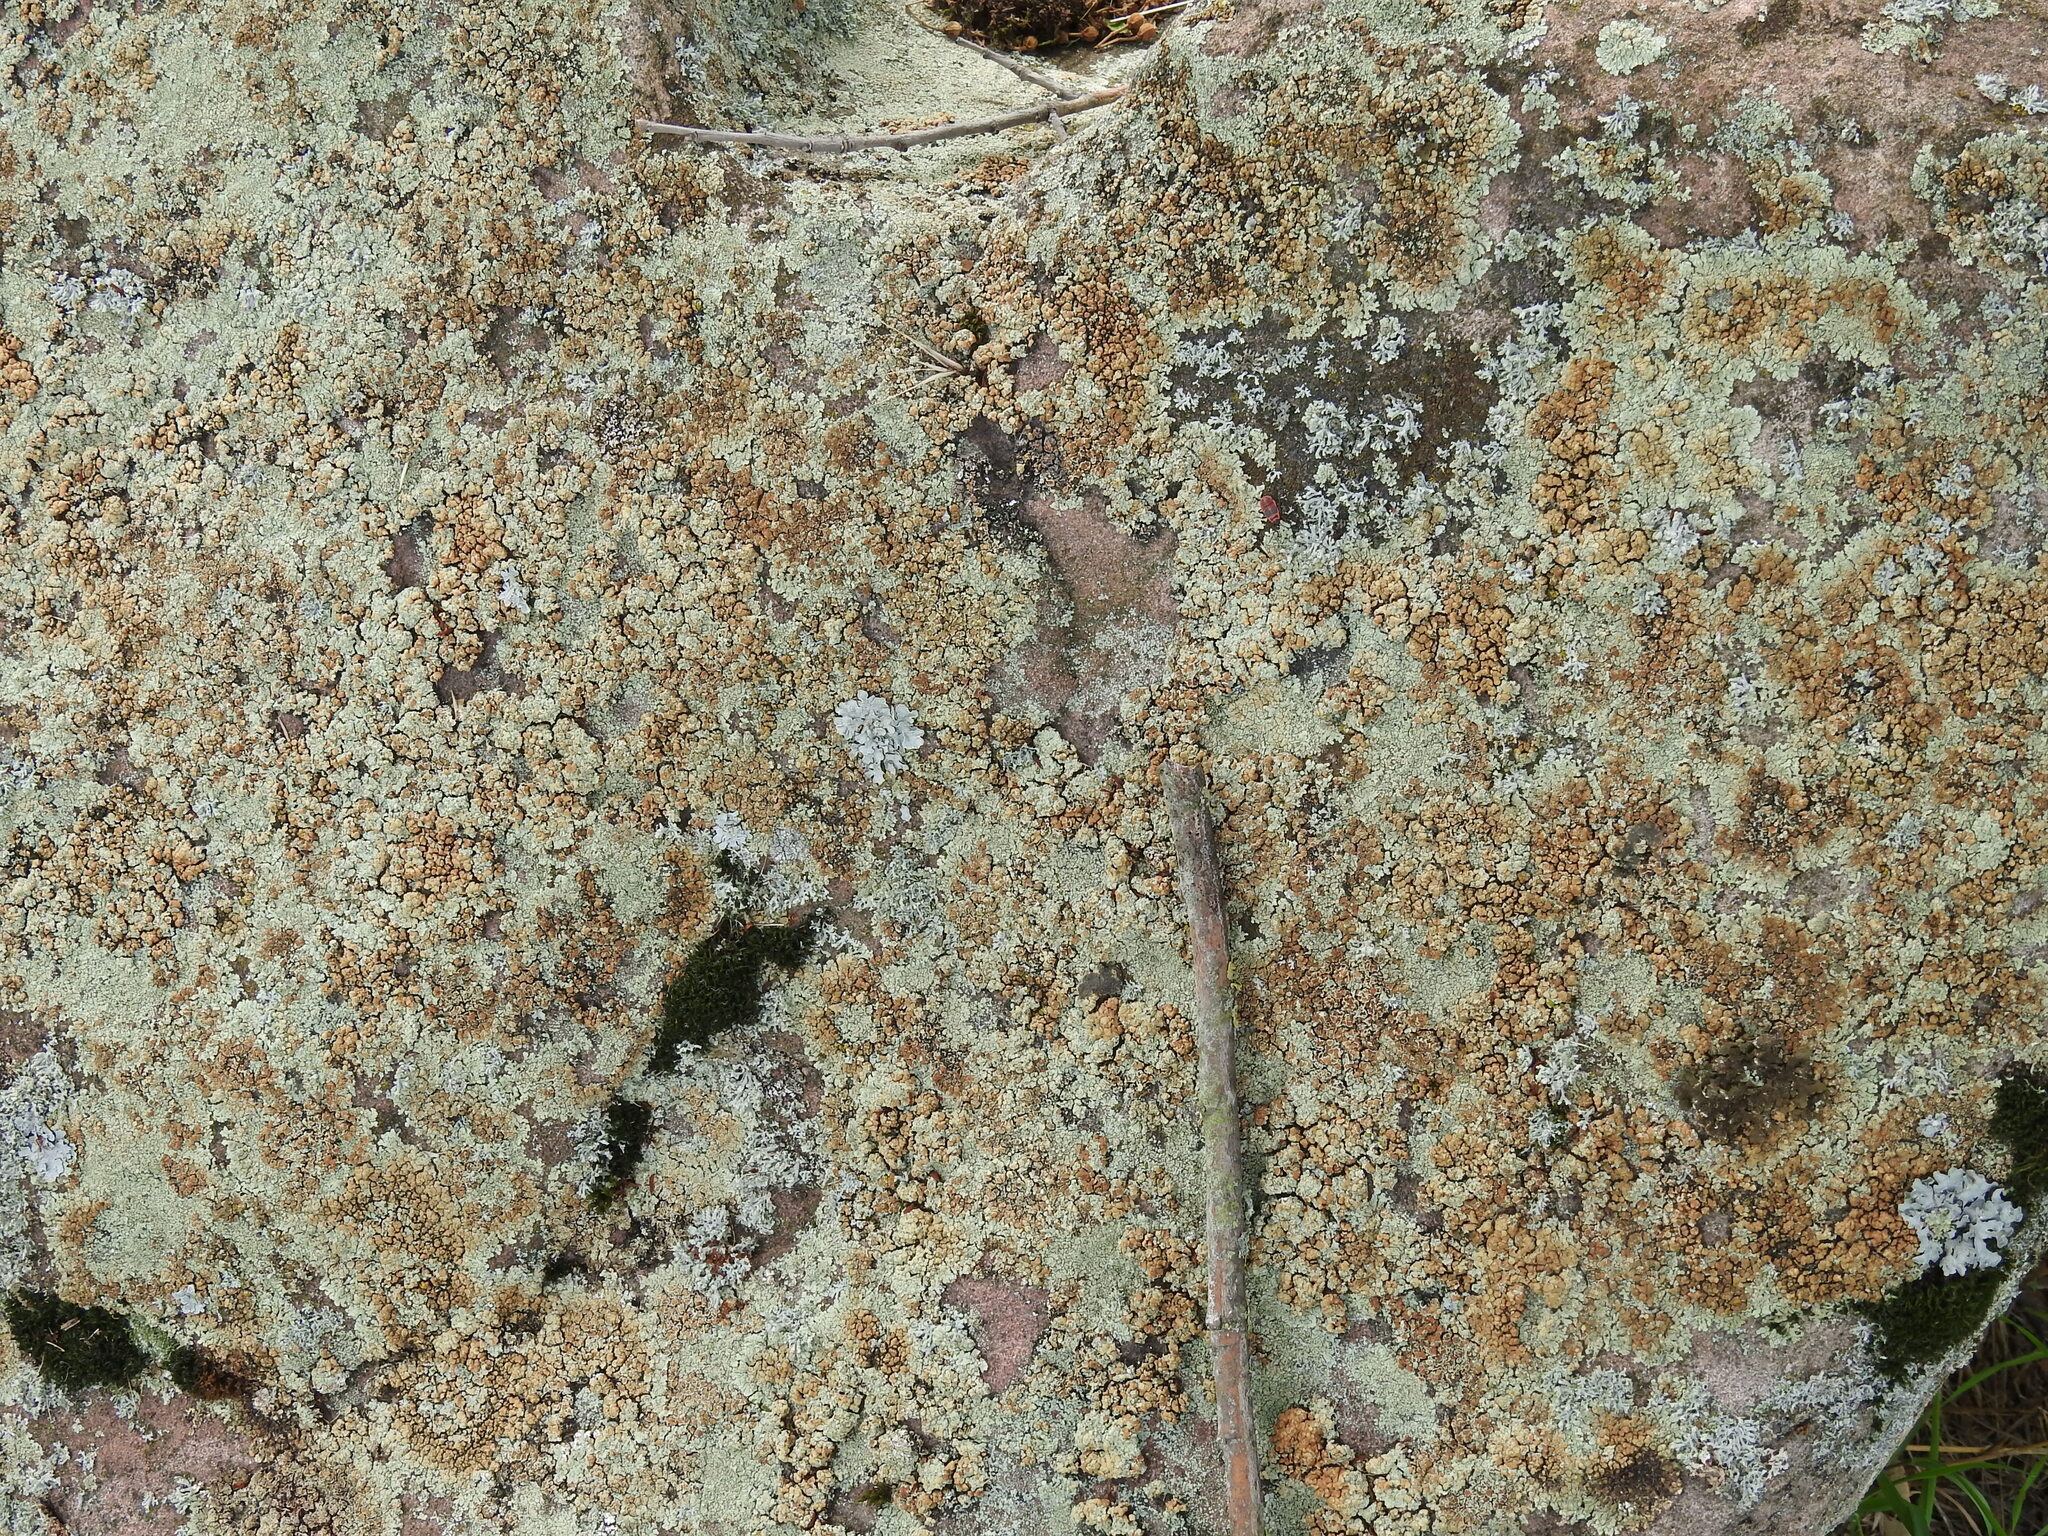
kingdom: Fungi
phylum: Ascomycota
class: Lecanoromycetes
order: Lecanorales
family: Lecanoraceae
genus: Protoparmeliopsis
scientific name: Protoparmeliopsis muralis
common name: Stonewall rim lichen
